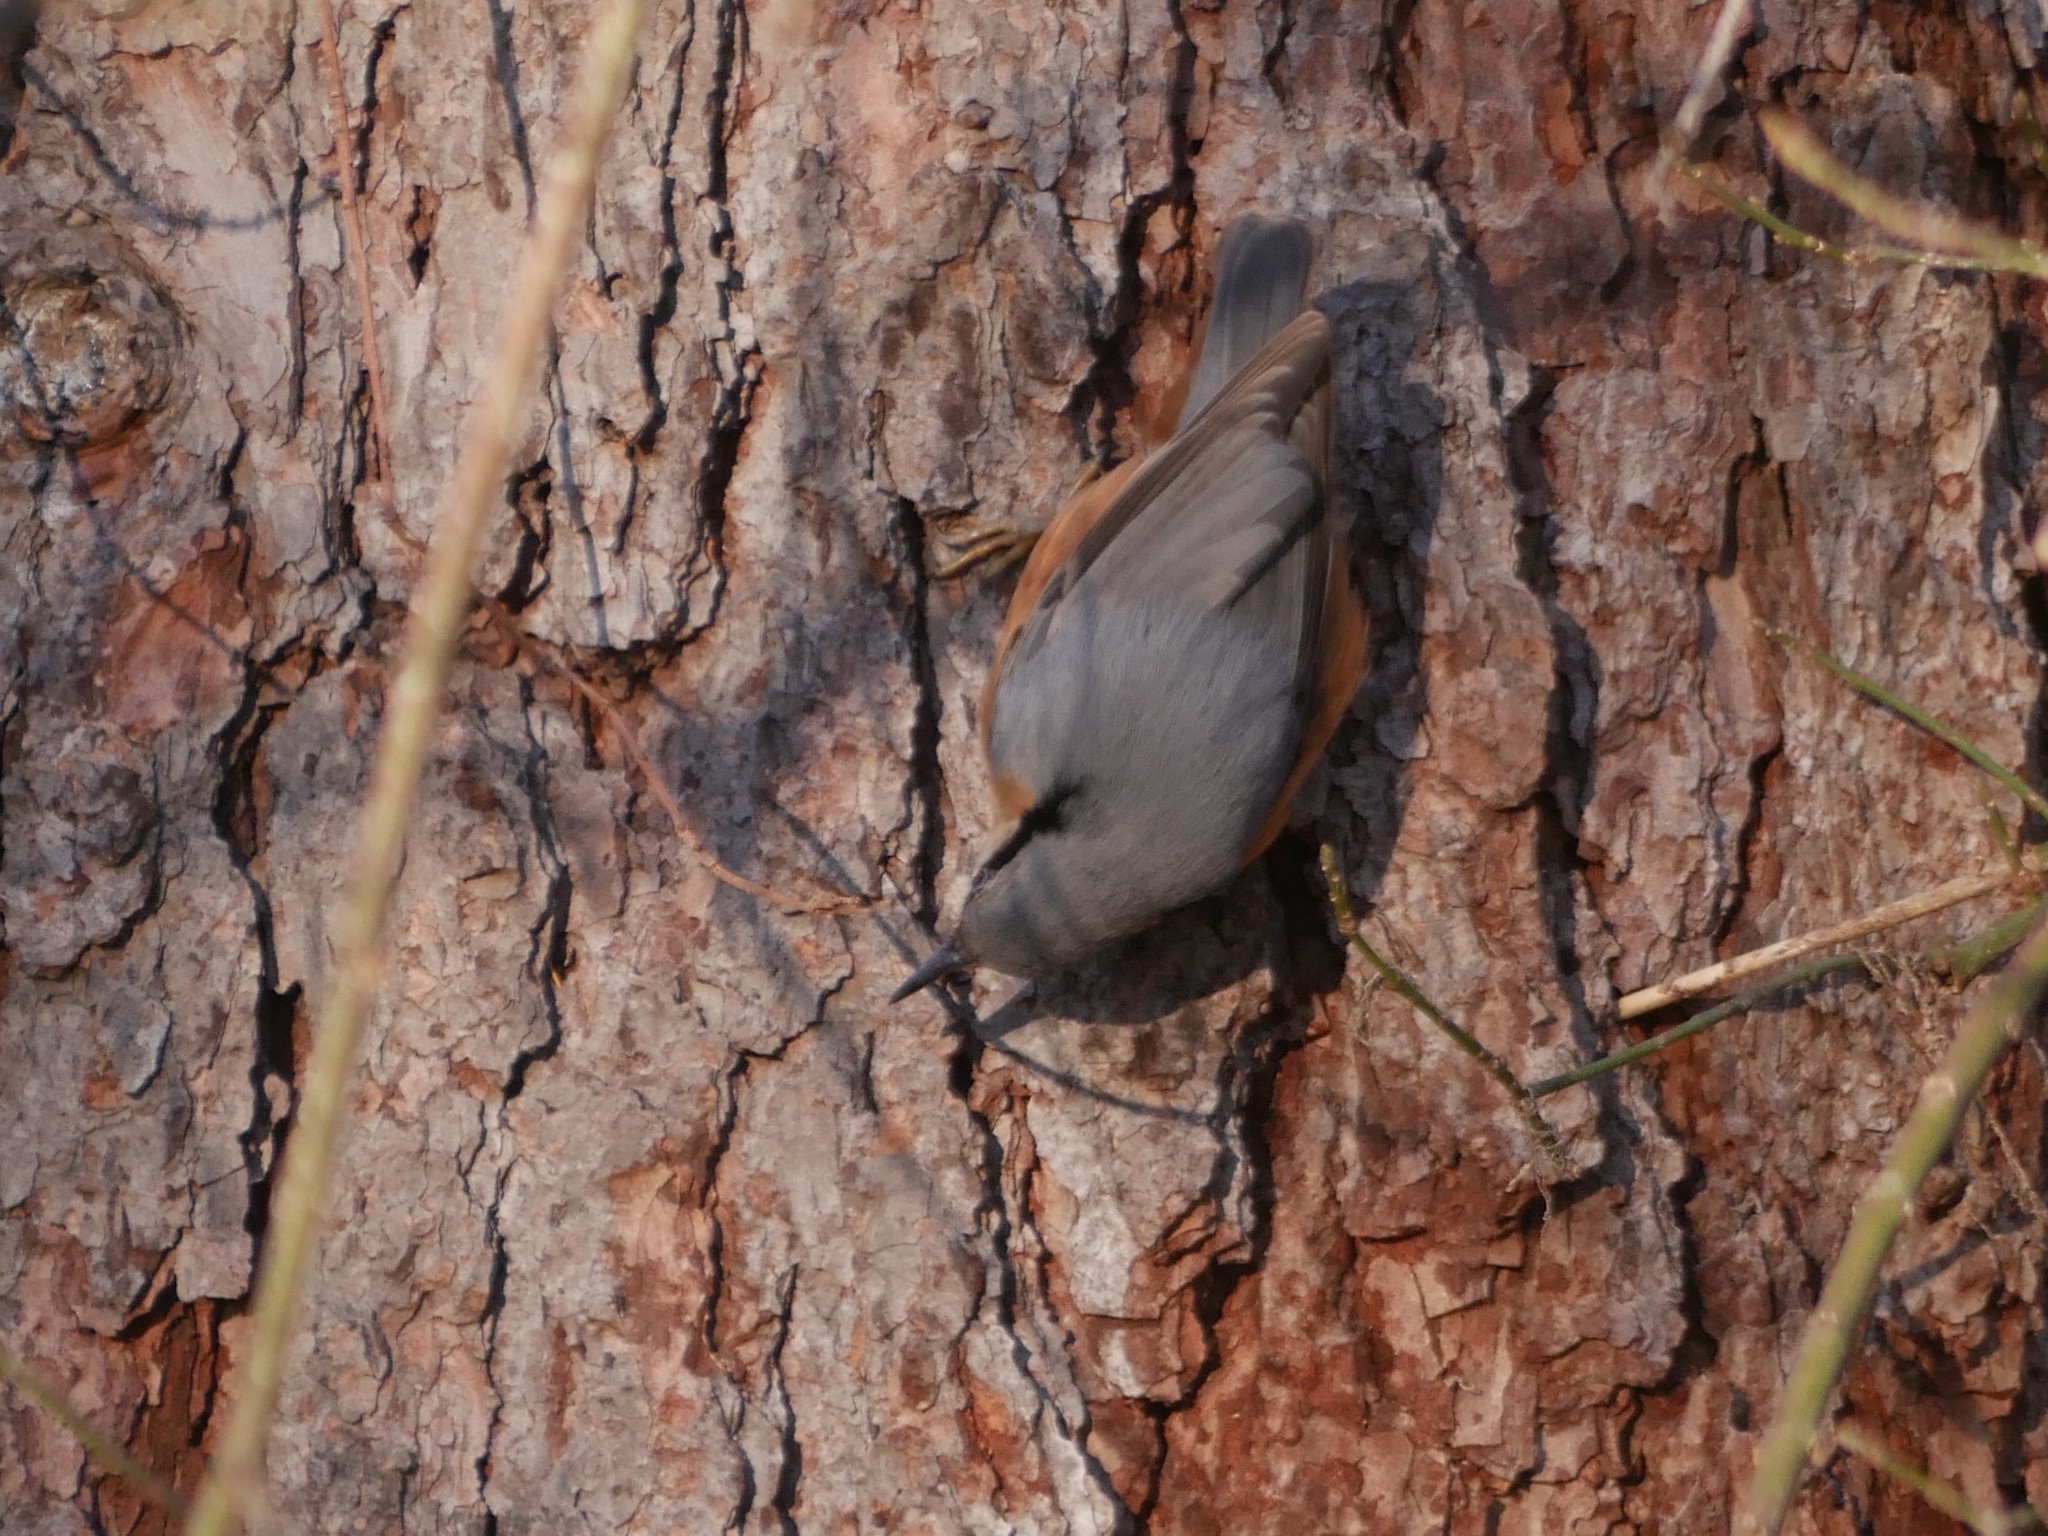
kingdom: Animalia
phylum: Chordata
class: Aves
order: Passeriformes
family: Sittidae
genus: Sitta
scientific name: Sitta europaea
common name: Eurasian nuthatch
